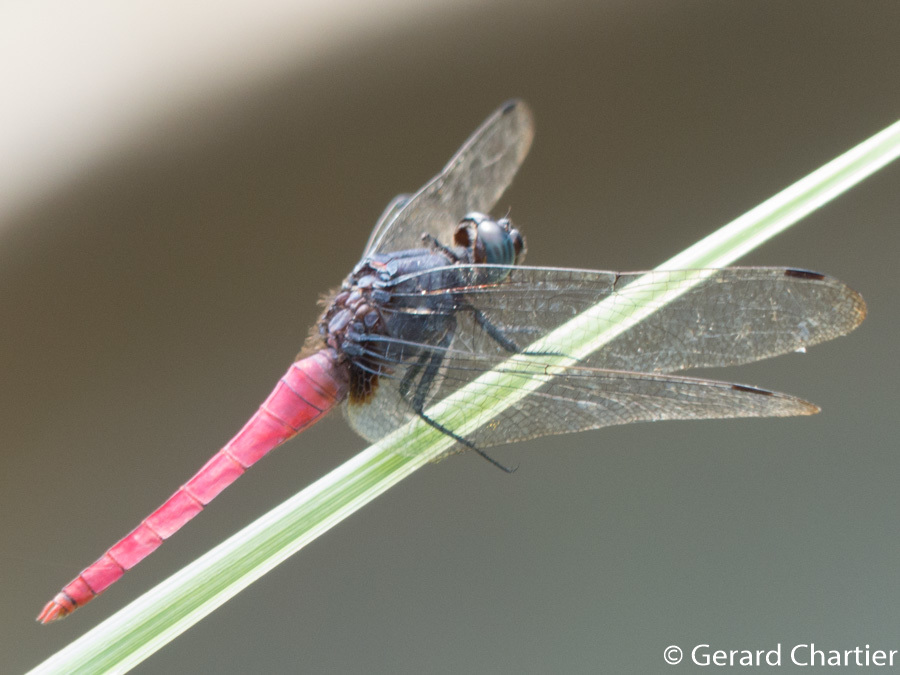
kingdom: Animalia
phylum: Arthropoda
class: Insecta
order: Odonata
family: Libellulidae
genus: Orthetrum
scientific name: Orthetrum pruinosum
